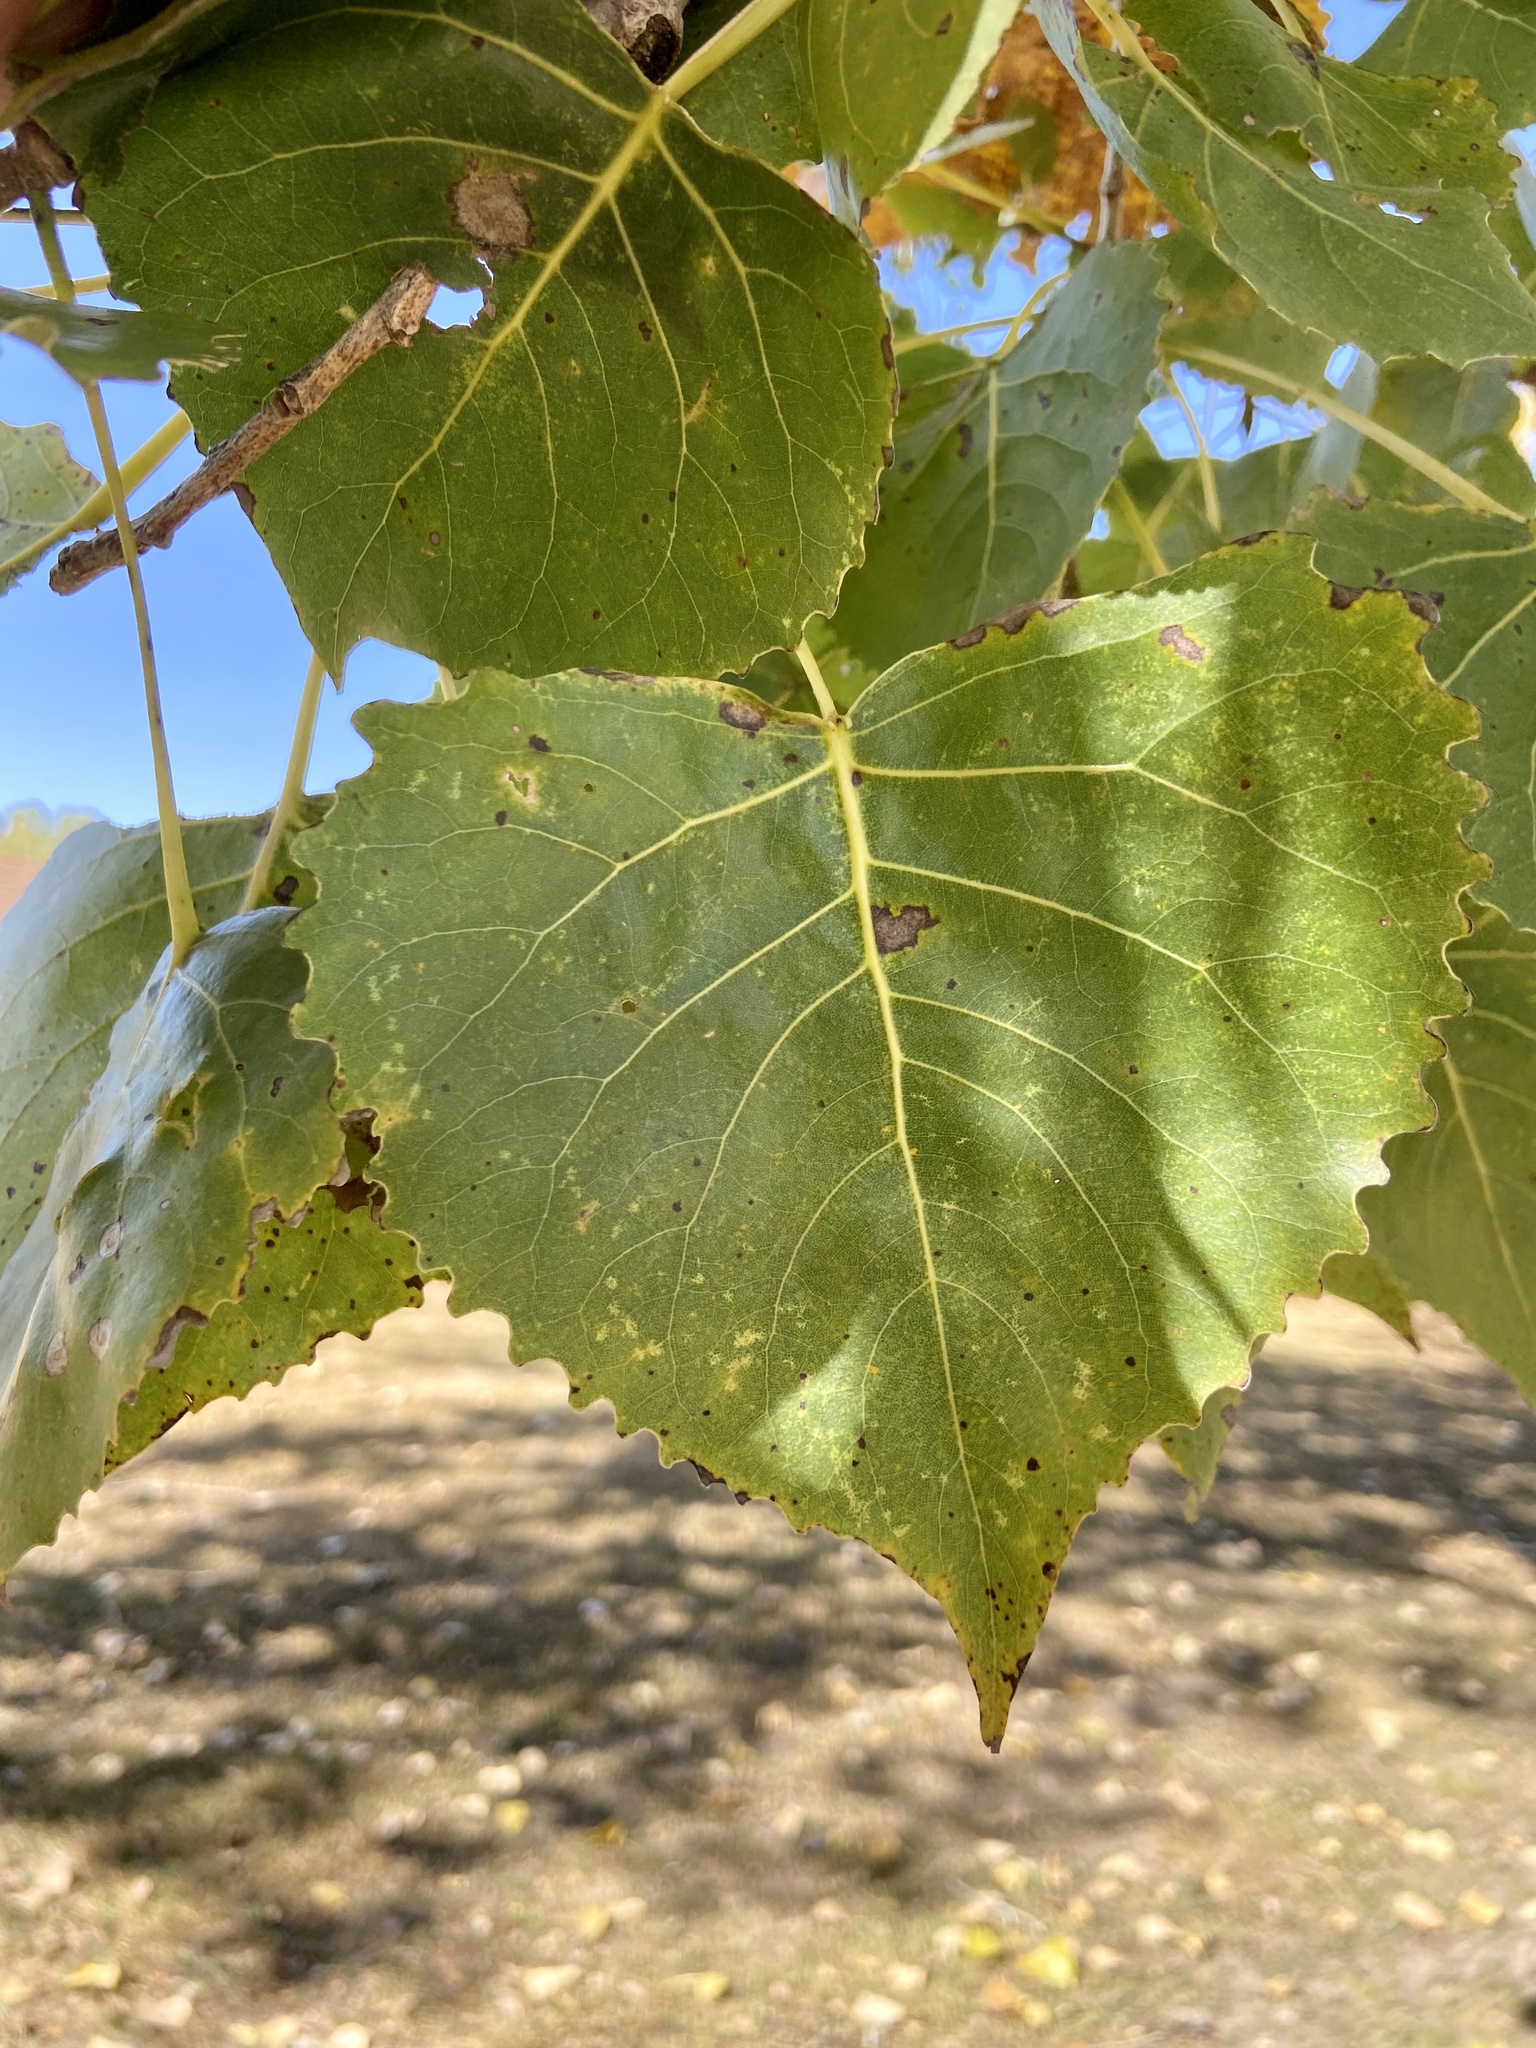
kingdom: Plantae
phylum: Tracheophyta
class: Magnoliopsida
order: Malpighiales
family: Salicaceae
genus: Populus
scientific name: Populus deltoides
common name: Eastern cottonwood
